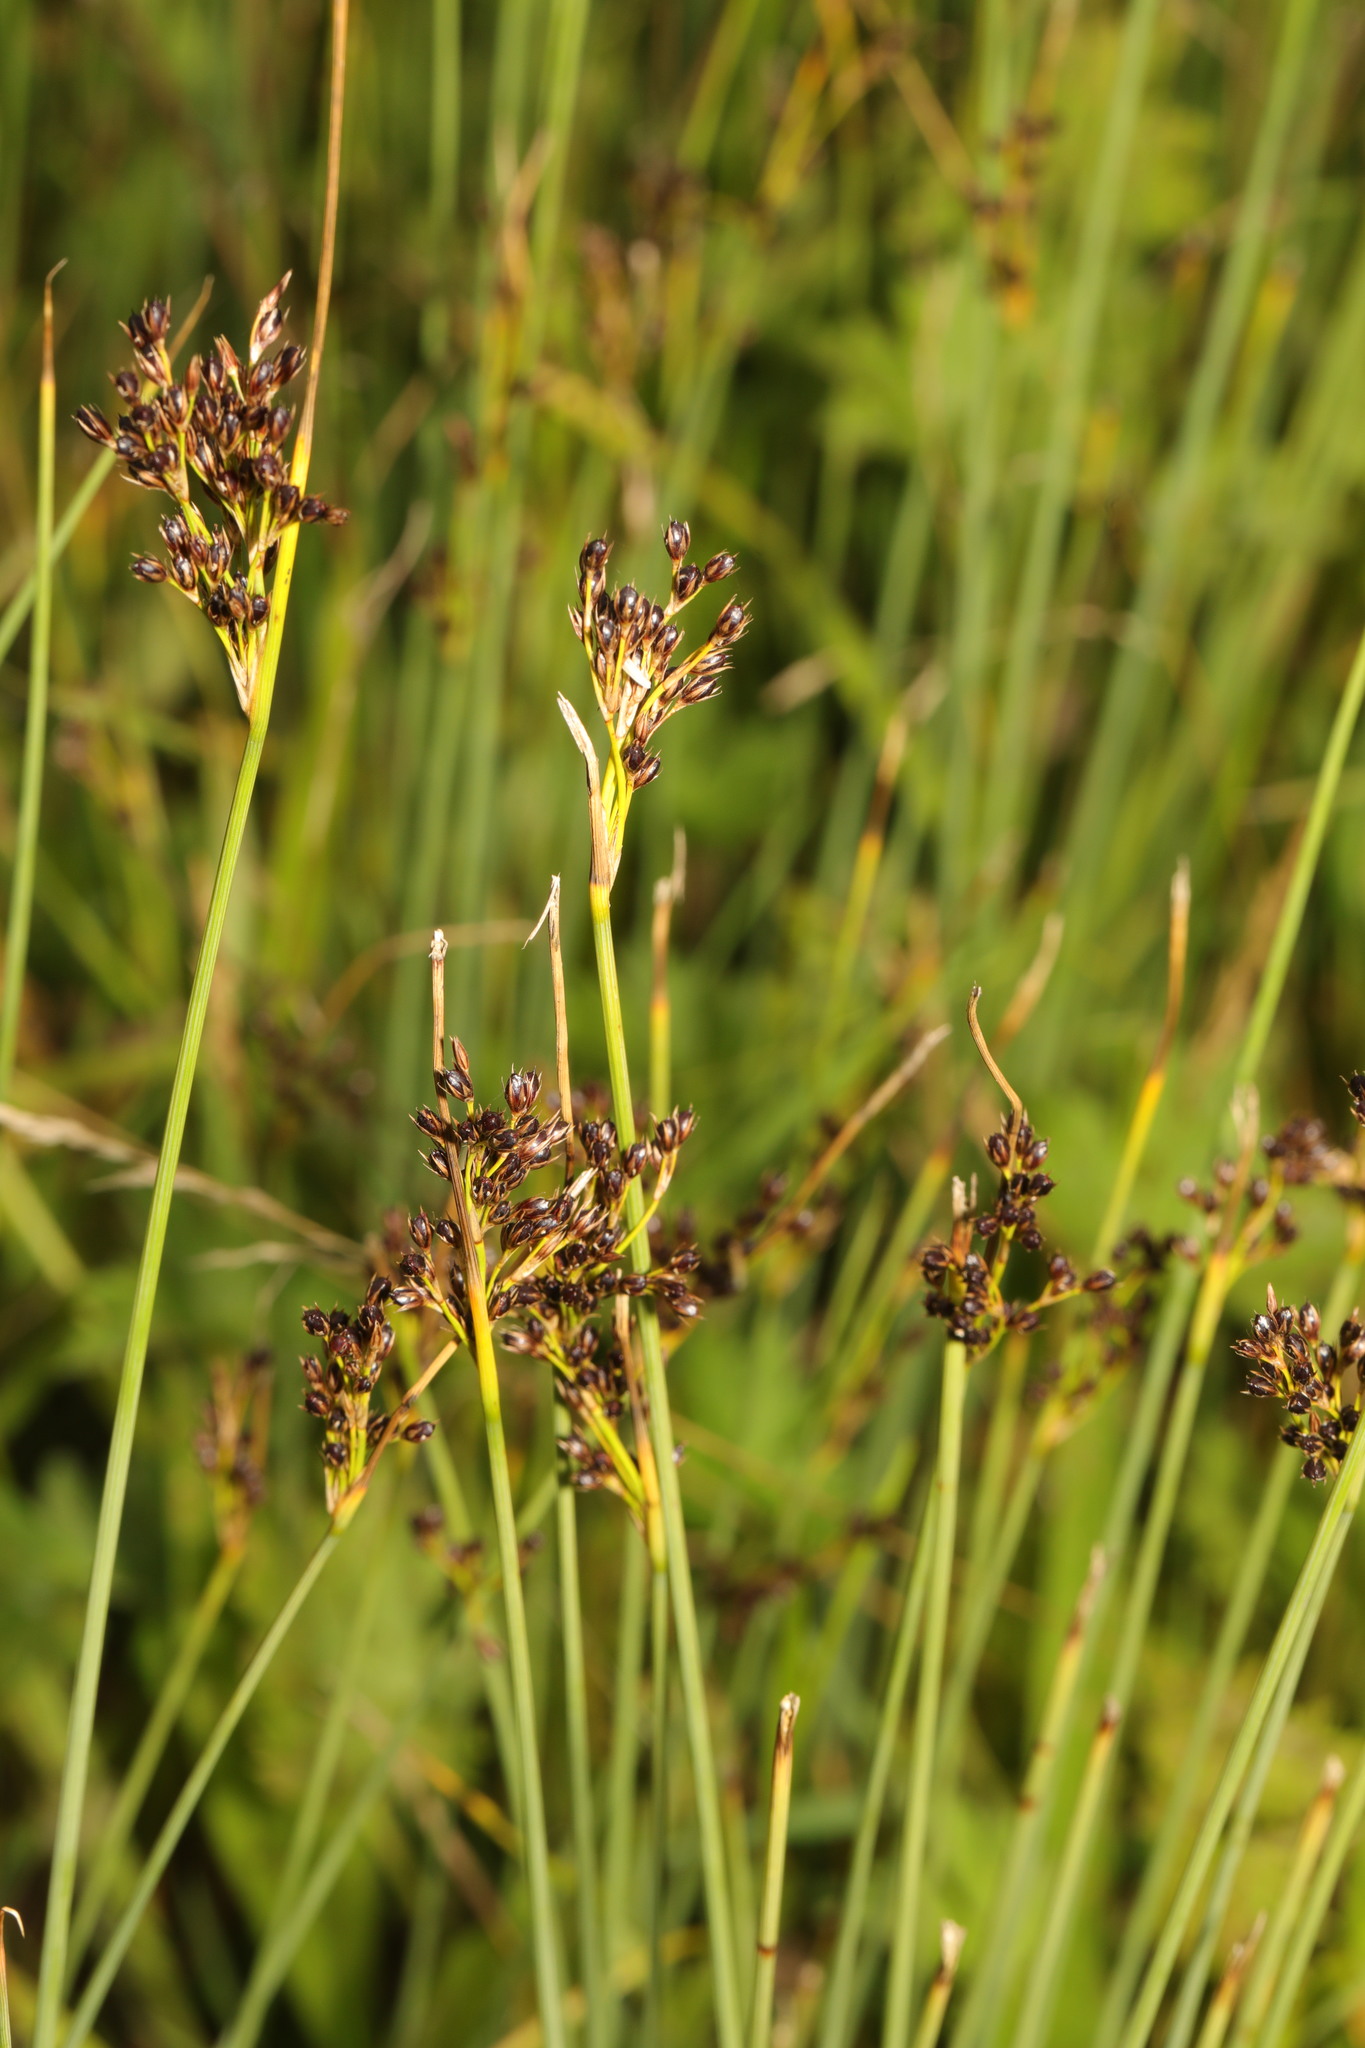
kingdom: Plantae
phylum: Tracheophyta
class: Liliopsida
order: Poales
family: Juncaceae
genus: Juncus
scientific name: Juncus inflexus
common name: Hard rush
